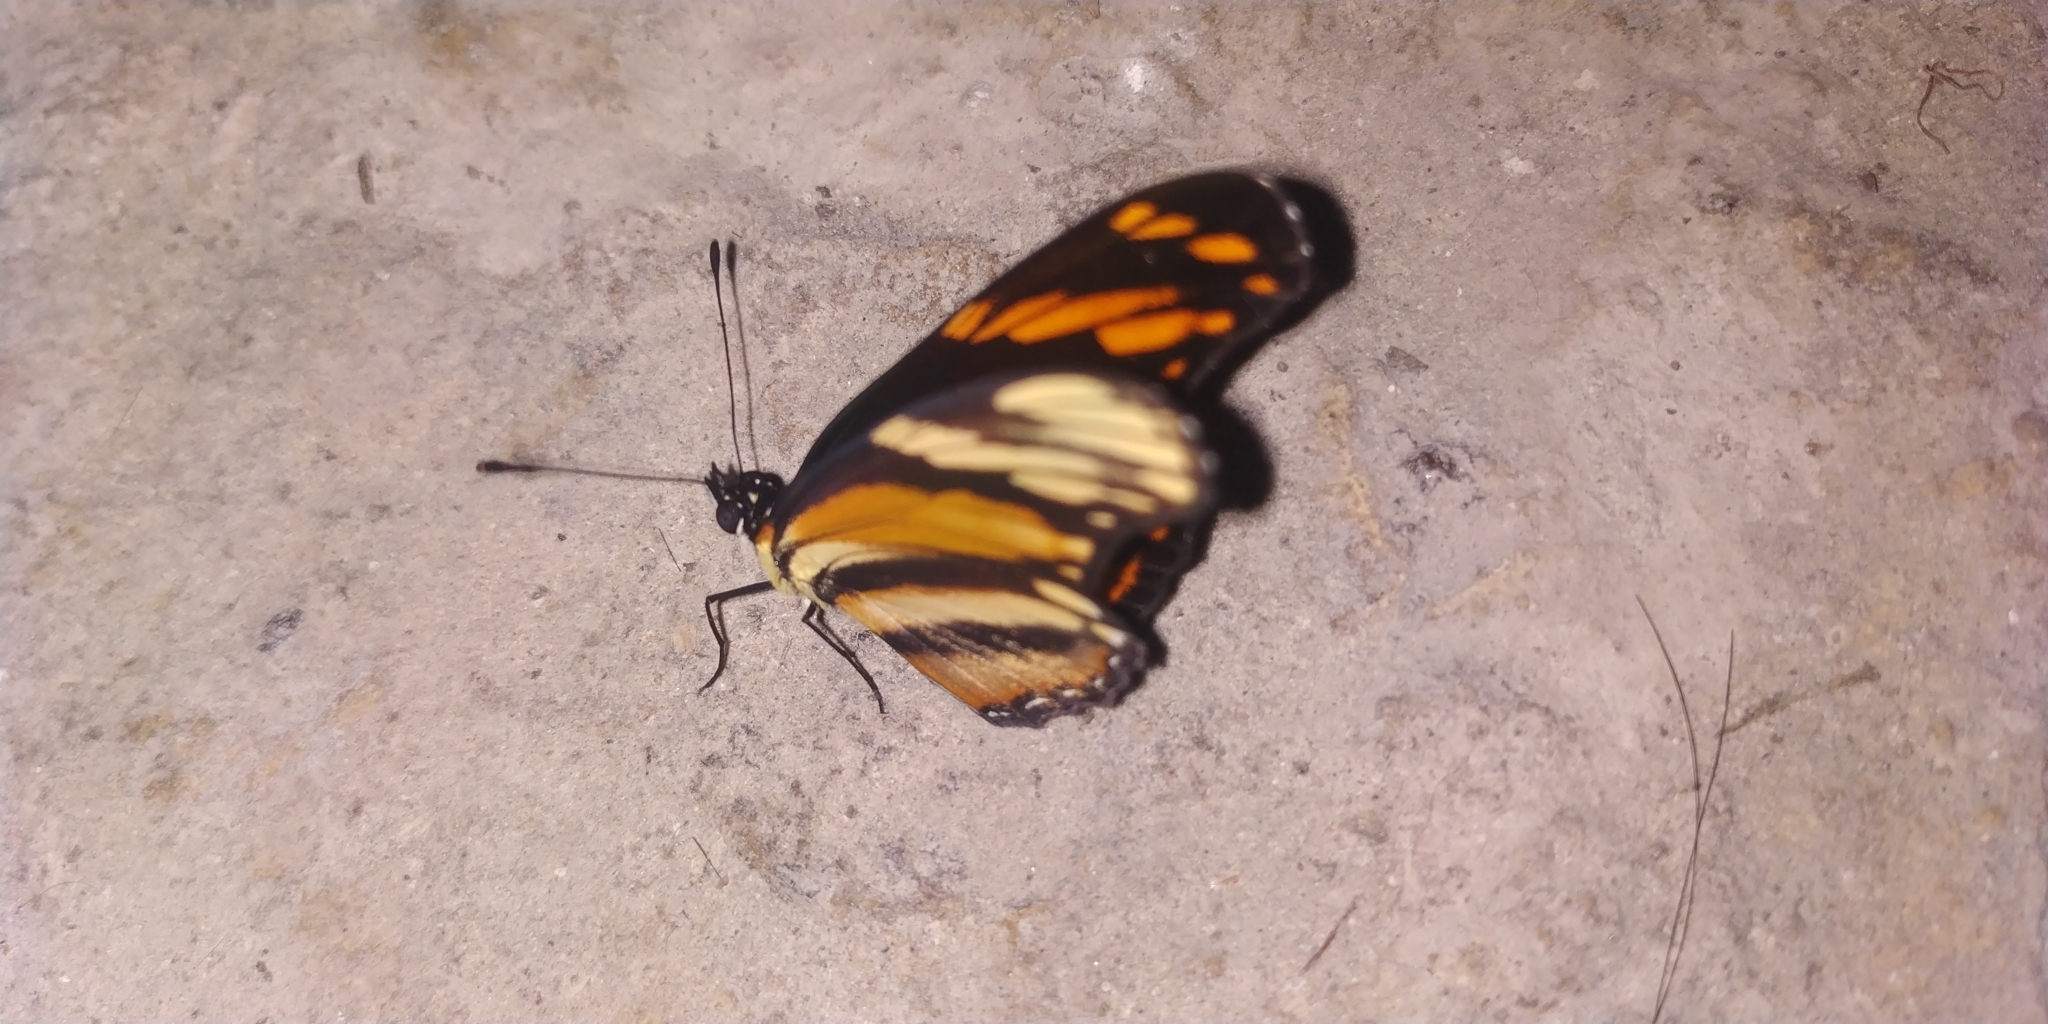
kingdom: Animalia
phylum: Arthropoda
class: Insecta
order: Lepidoptera
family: Nymphalidae
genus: Eresia
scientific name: Eresia phillyra
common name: Longwing crescent
